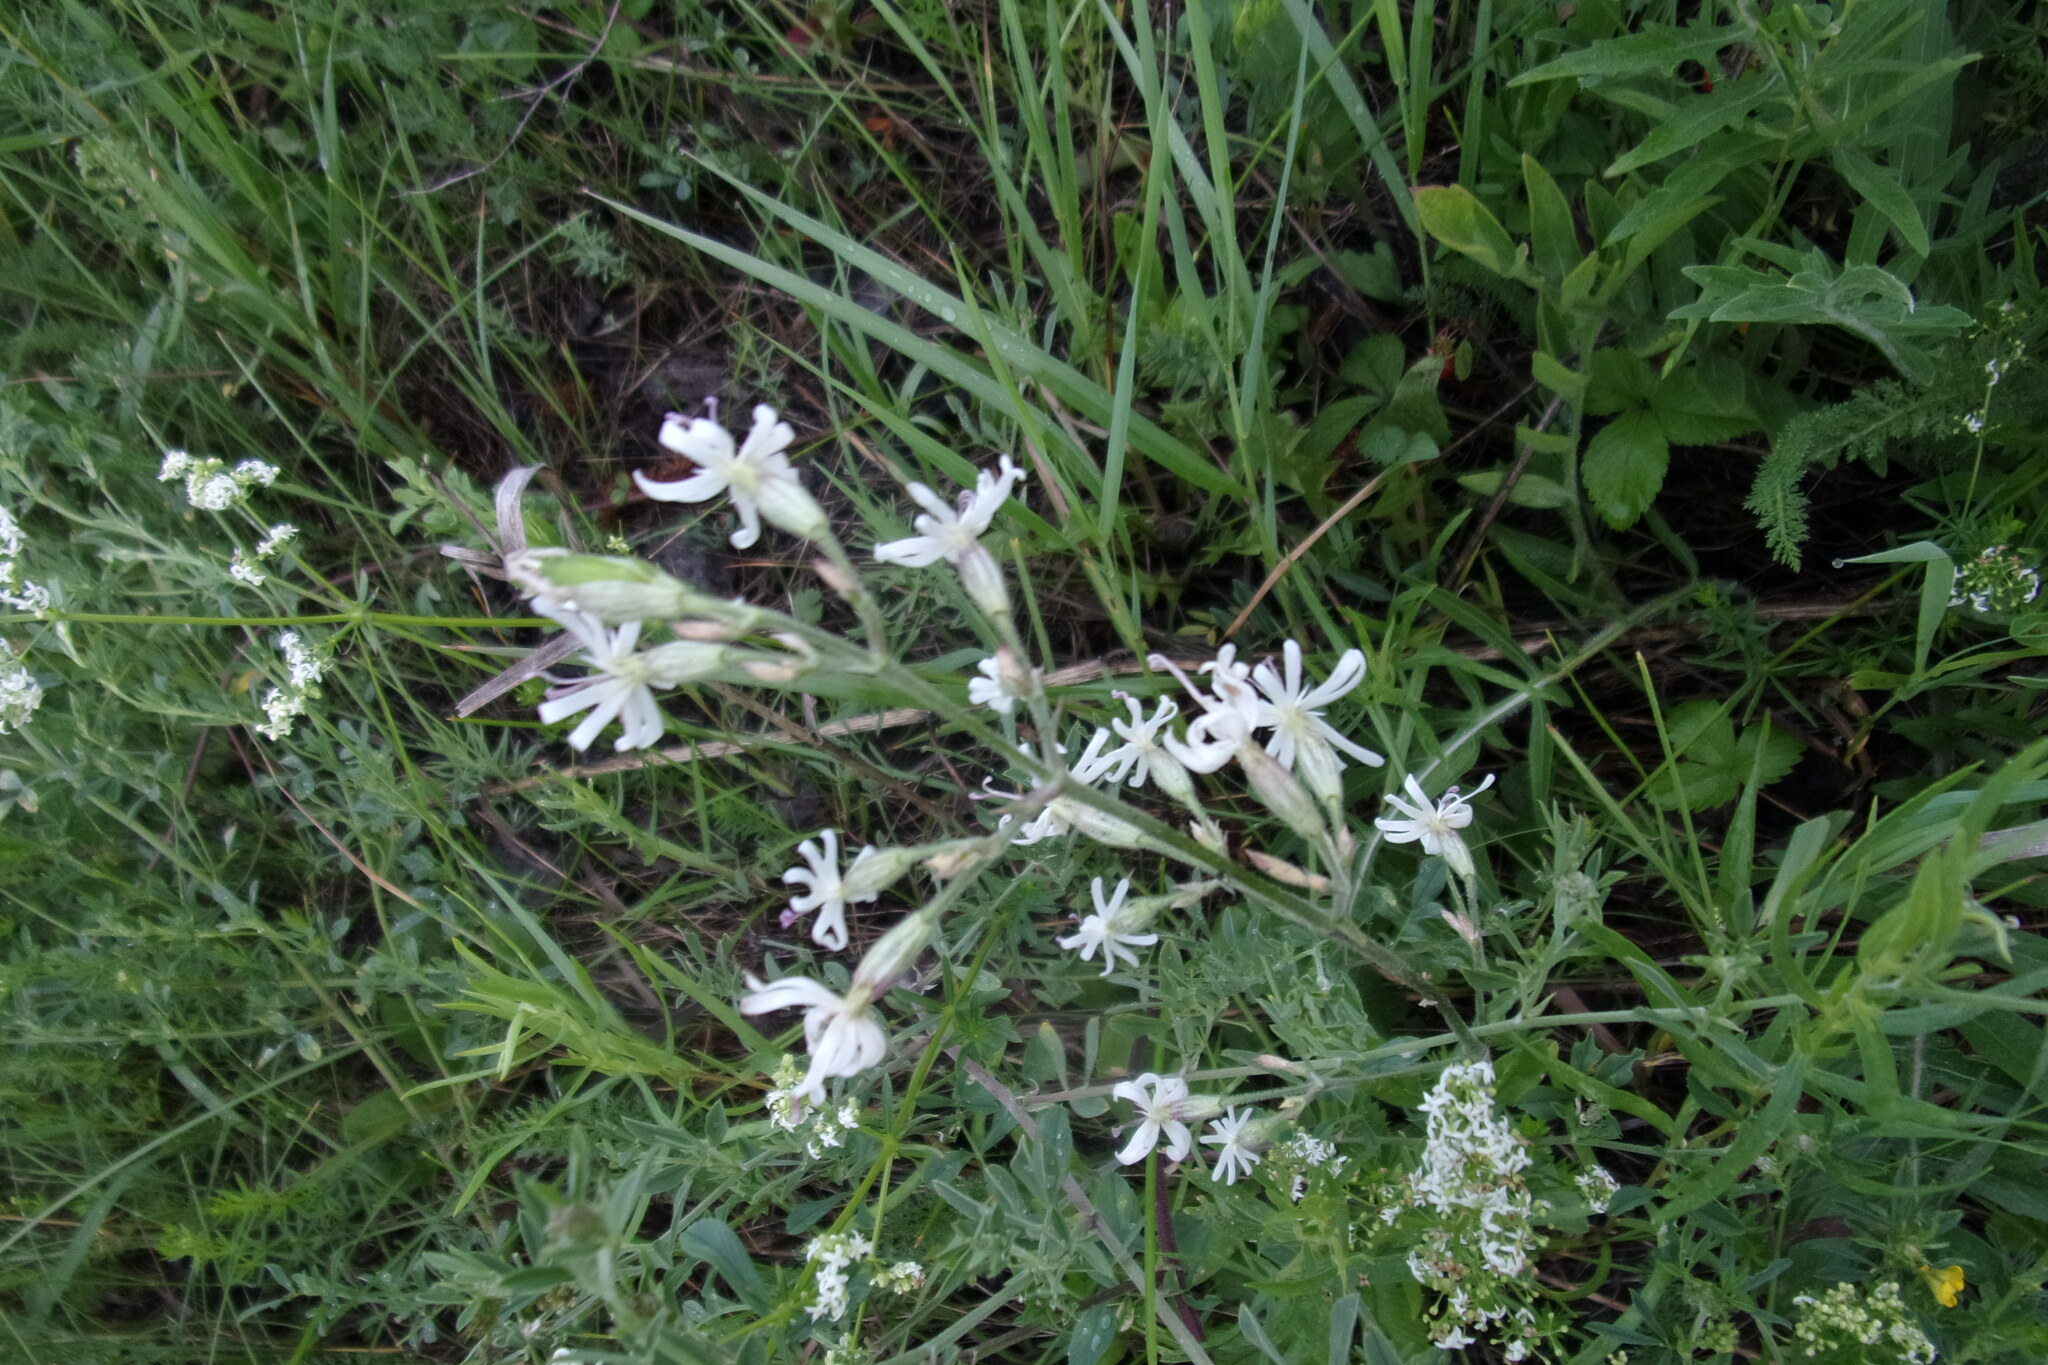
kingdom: Plantae
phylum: Tracheophyta
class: Magnoliopsida
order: Caryophyllales
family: Caryophyllaceae
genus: Silene
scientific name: Silene nutans
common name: Nottingham catchfly
